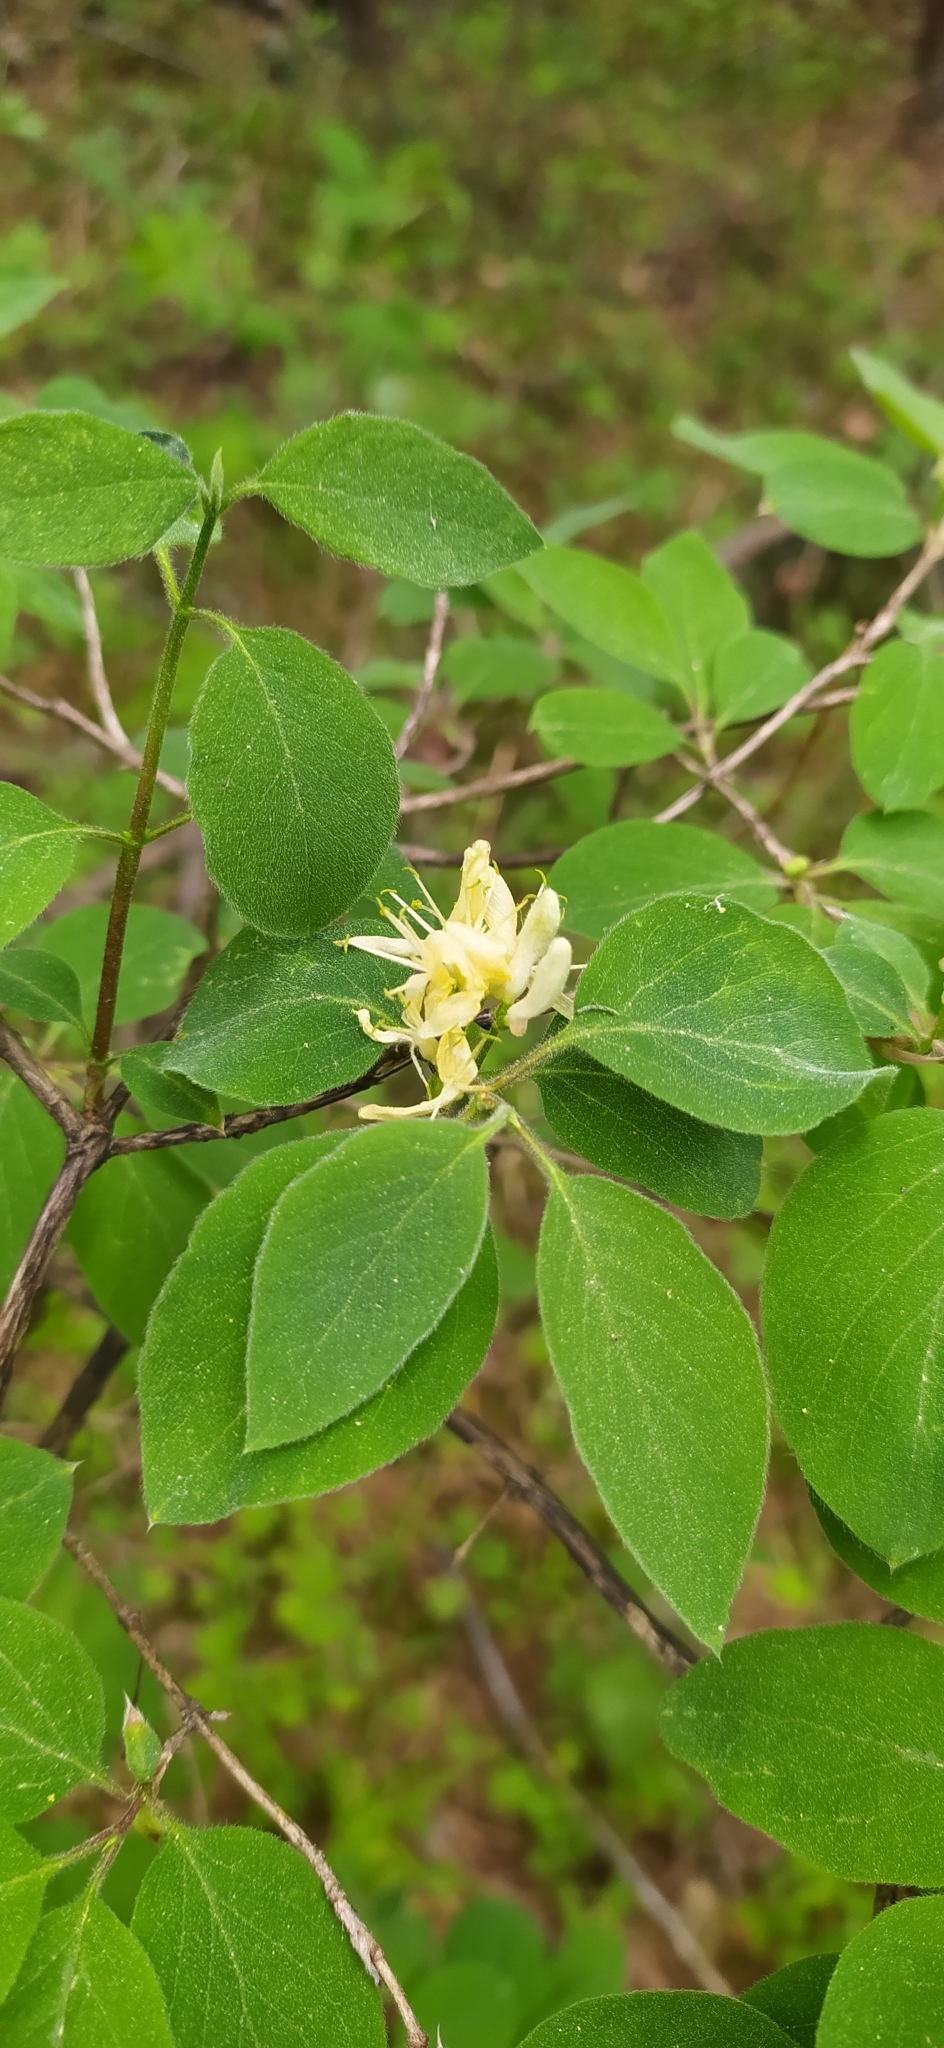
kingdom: Plantae
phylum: Tracheophyta
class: Magnoliopsida
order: Dipsacales
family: Caprifoliaceae
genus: Lonicera
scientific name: Lonicera xylosteum
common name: Fly honeysuckle
